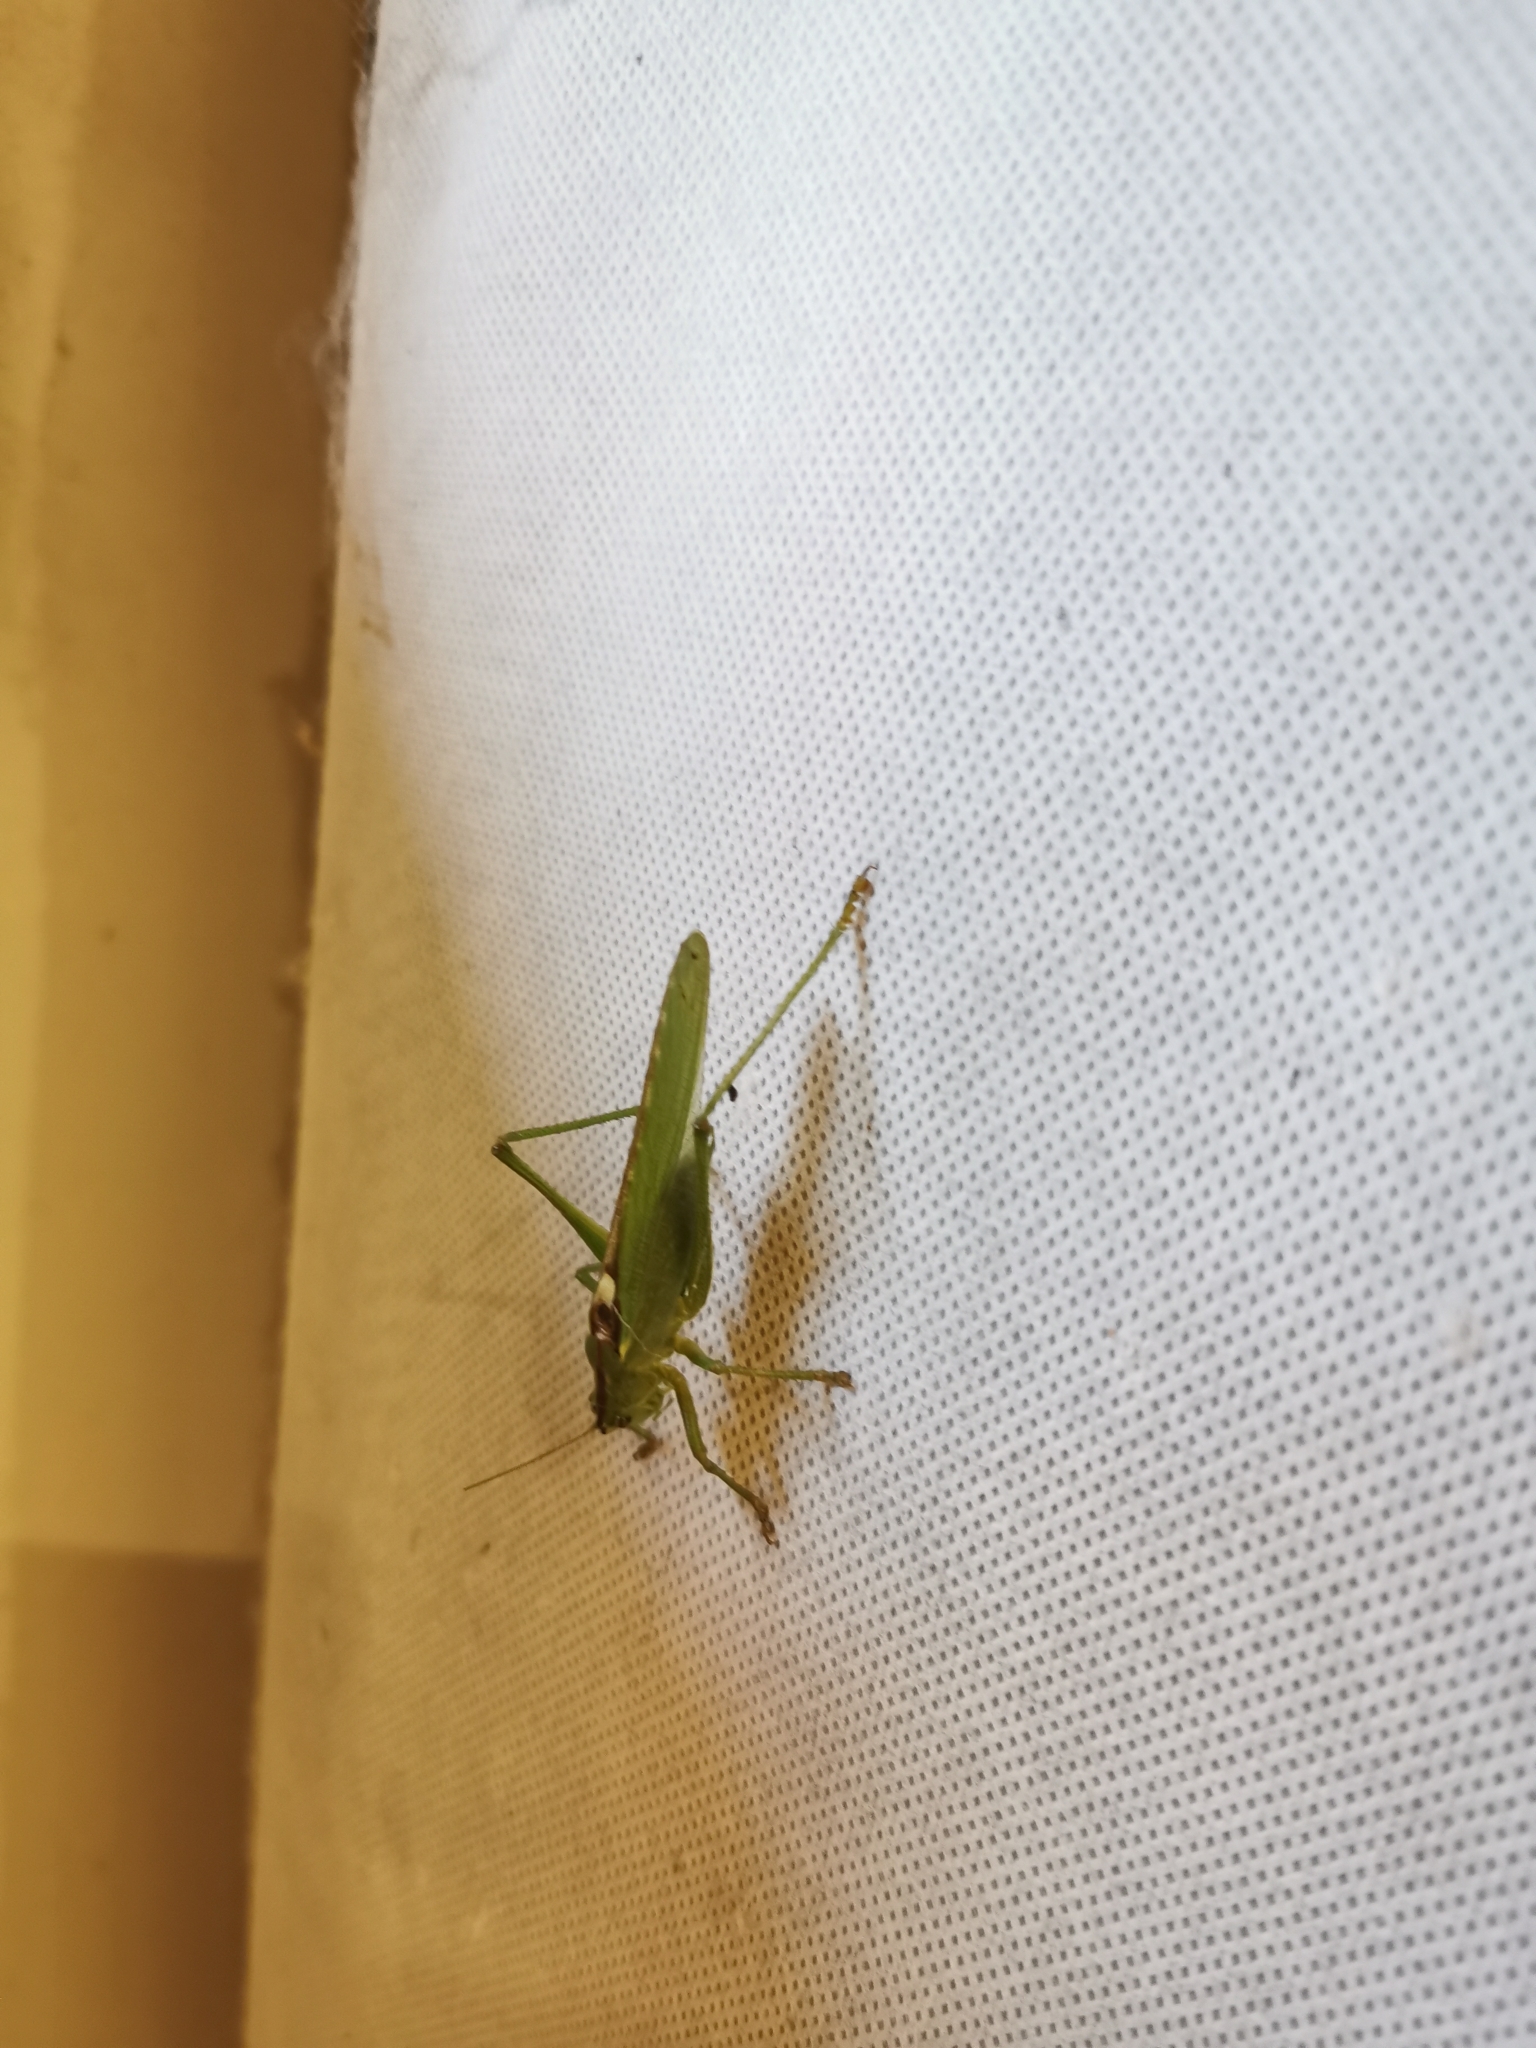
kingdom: Animalia
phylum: Arthropoda
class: Insecta
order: Orthoptera
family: Tettigoniidae
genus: Tettigonia
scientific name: Tettigonia viridissima
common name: Great green bush-cricket
